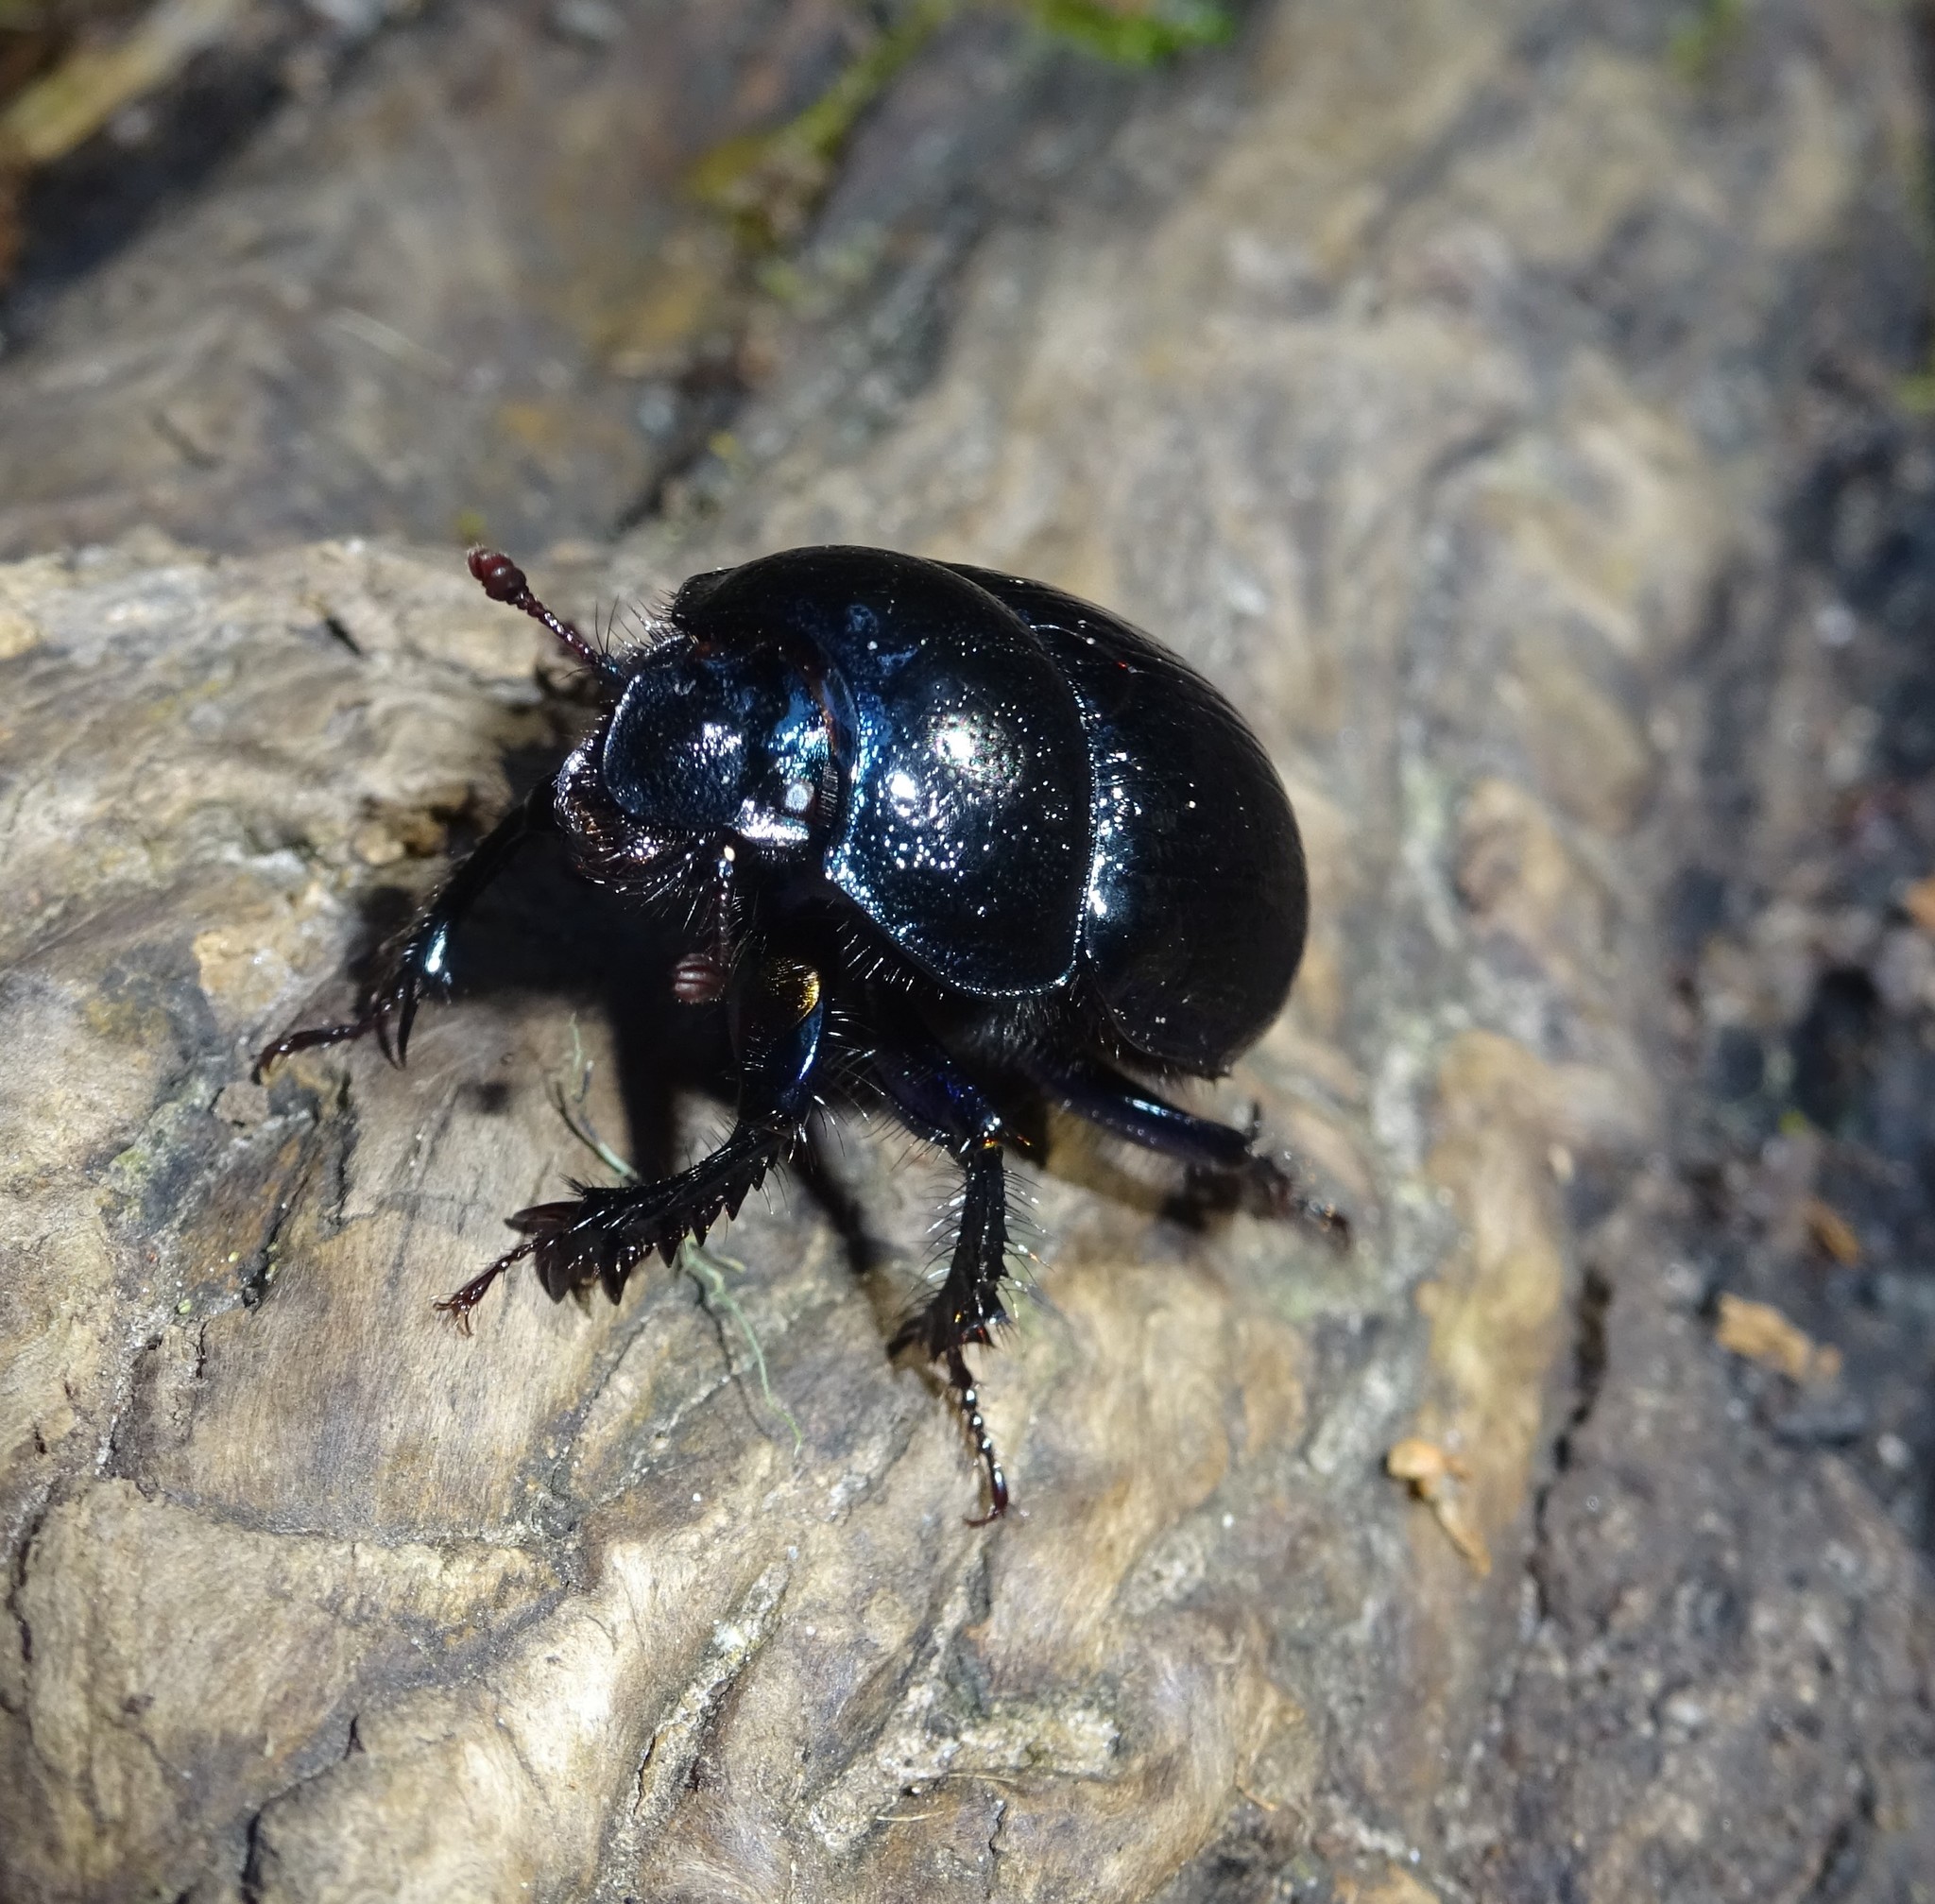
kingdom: Animalia
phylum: Arthropoda
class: Insecta
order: Coleoptera
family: Geotrupidae
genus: Anoplotrupes
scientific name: Anoplotrupes stercorosus
